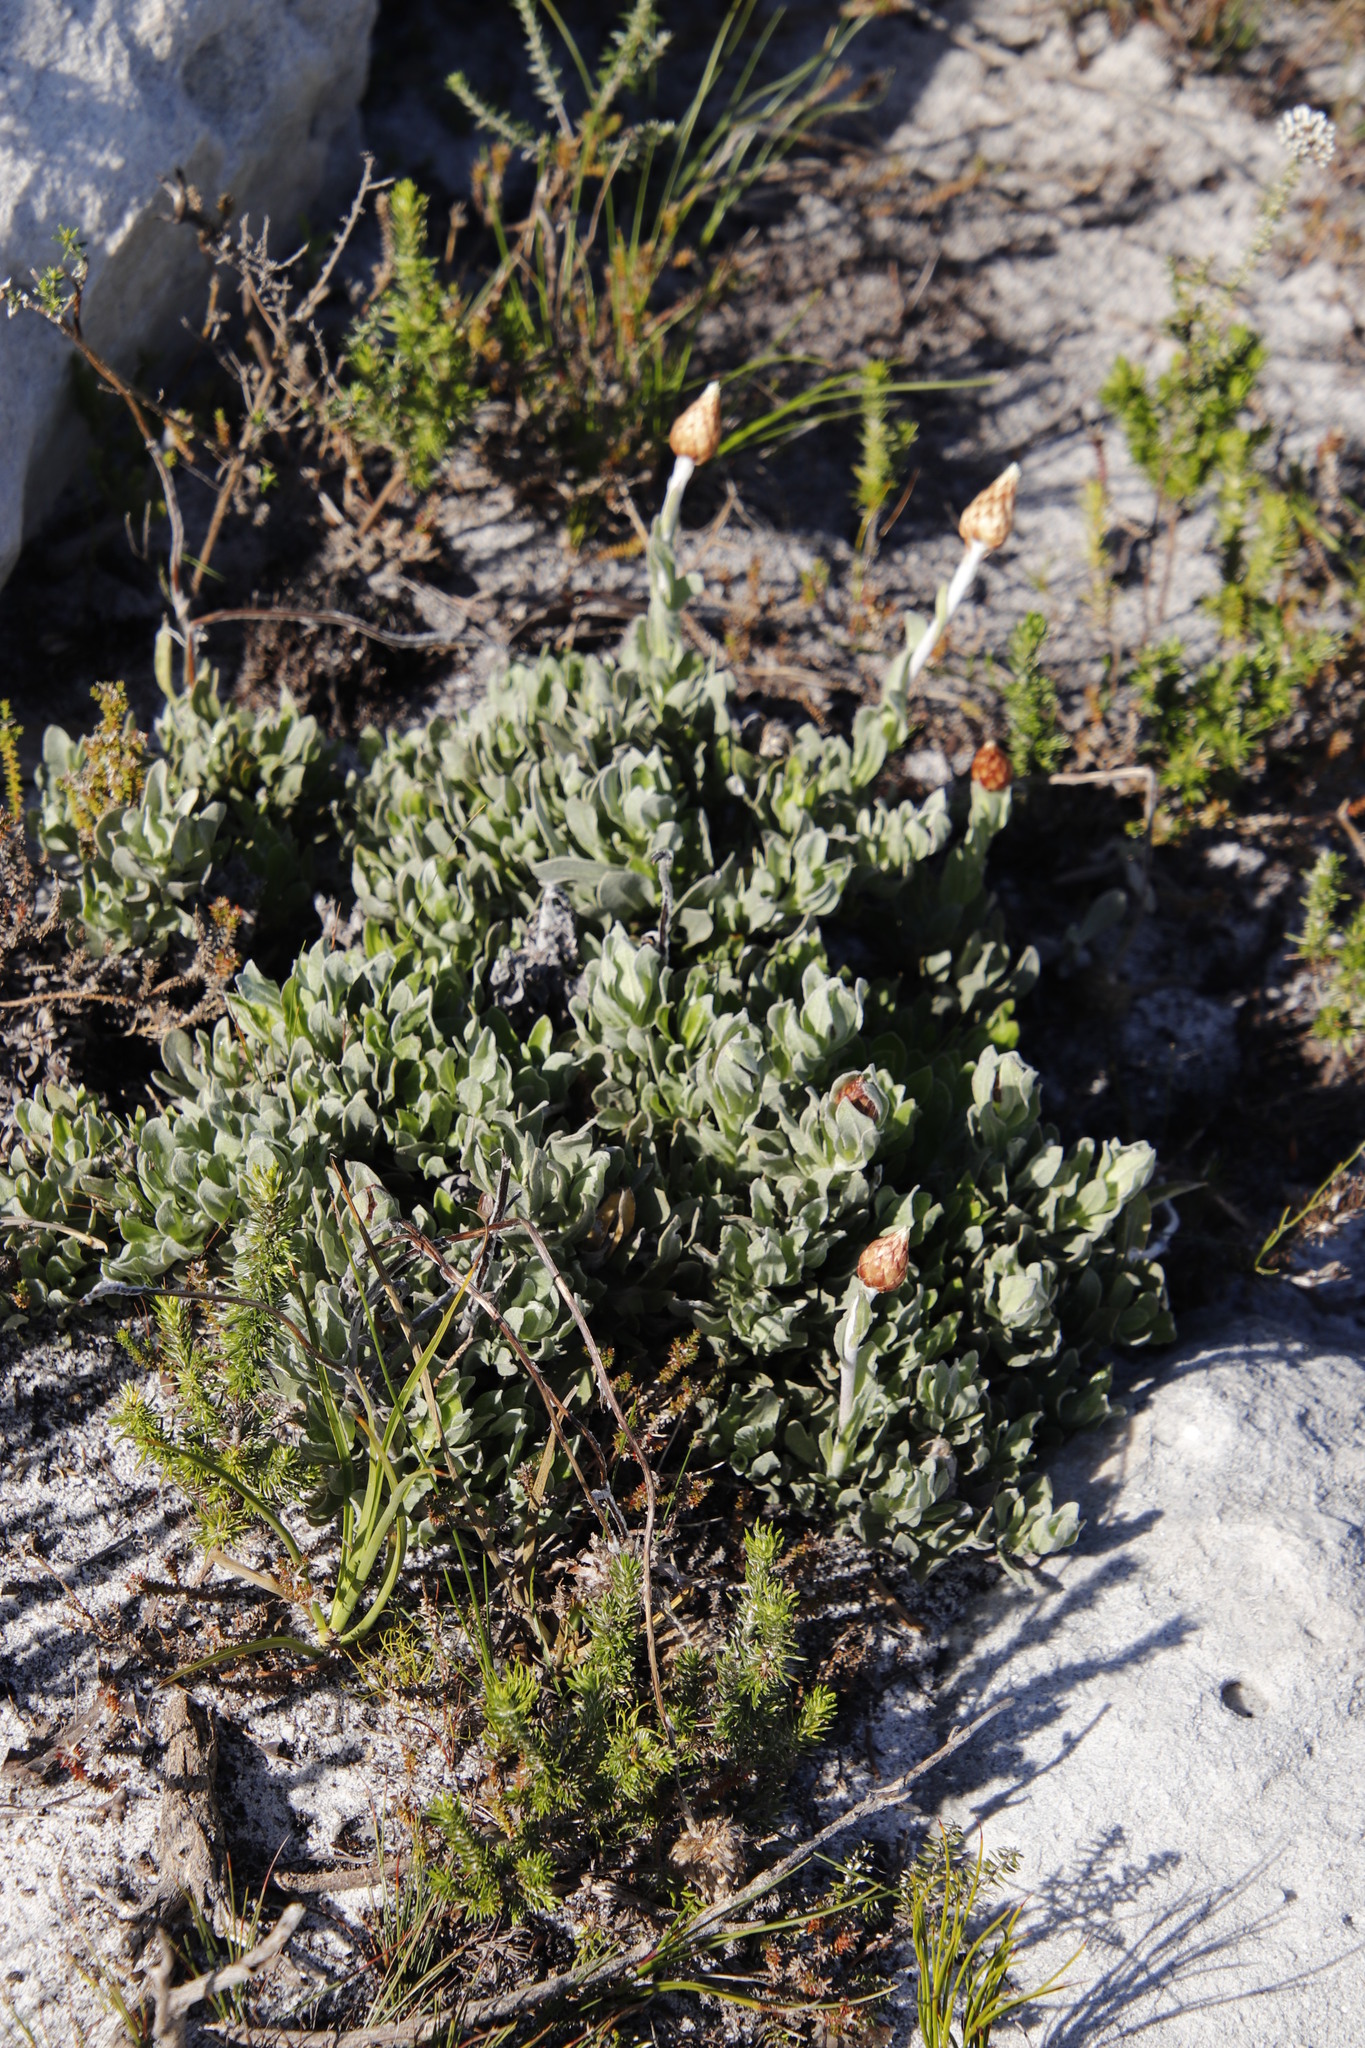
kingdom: Plantae
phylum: Tracheophyta
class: Magnoliopsida
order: Asterales
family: Asteraceae
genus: Syncarpha
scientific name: Syncarpha speciosissima
